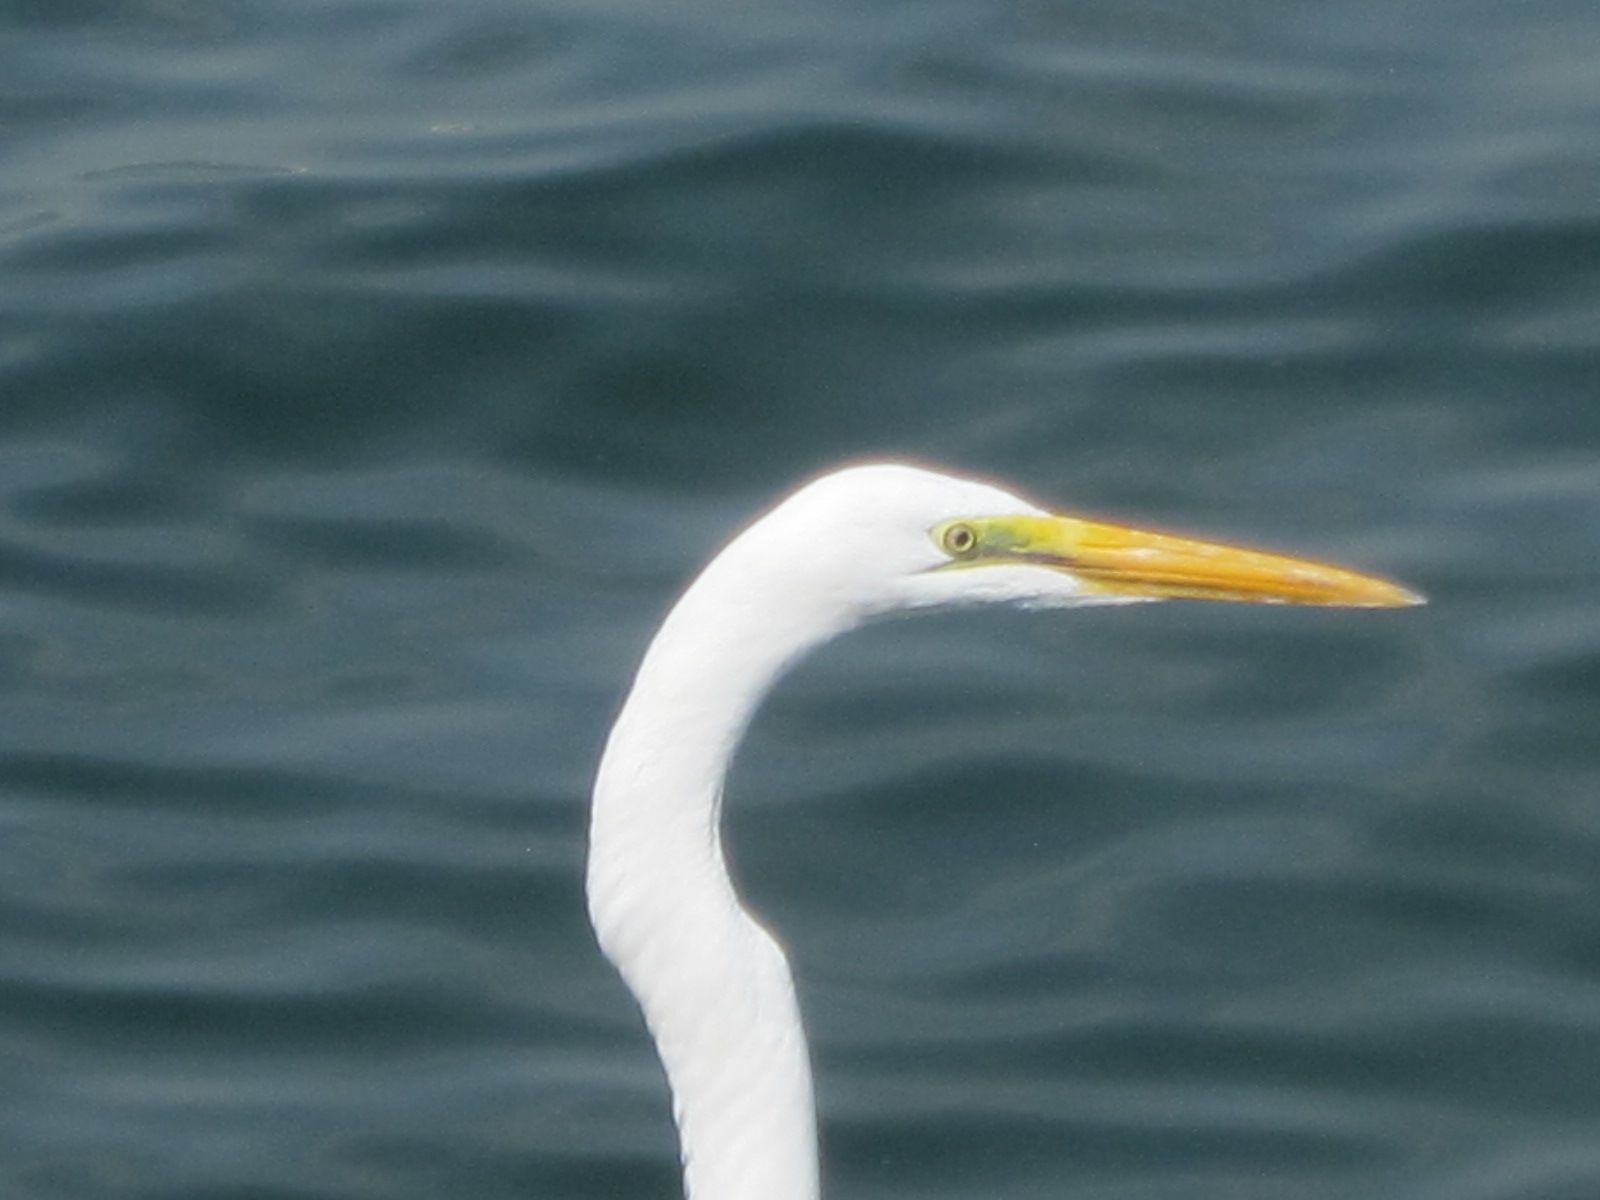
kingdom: Animalia
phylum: Chordata
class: Aves
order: Pelecaniformes
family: Ardeidae
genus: Ardea
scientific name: Ardea modesta
